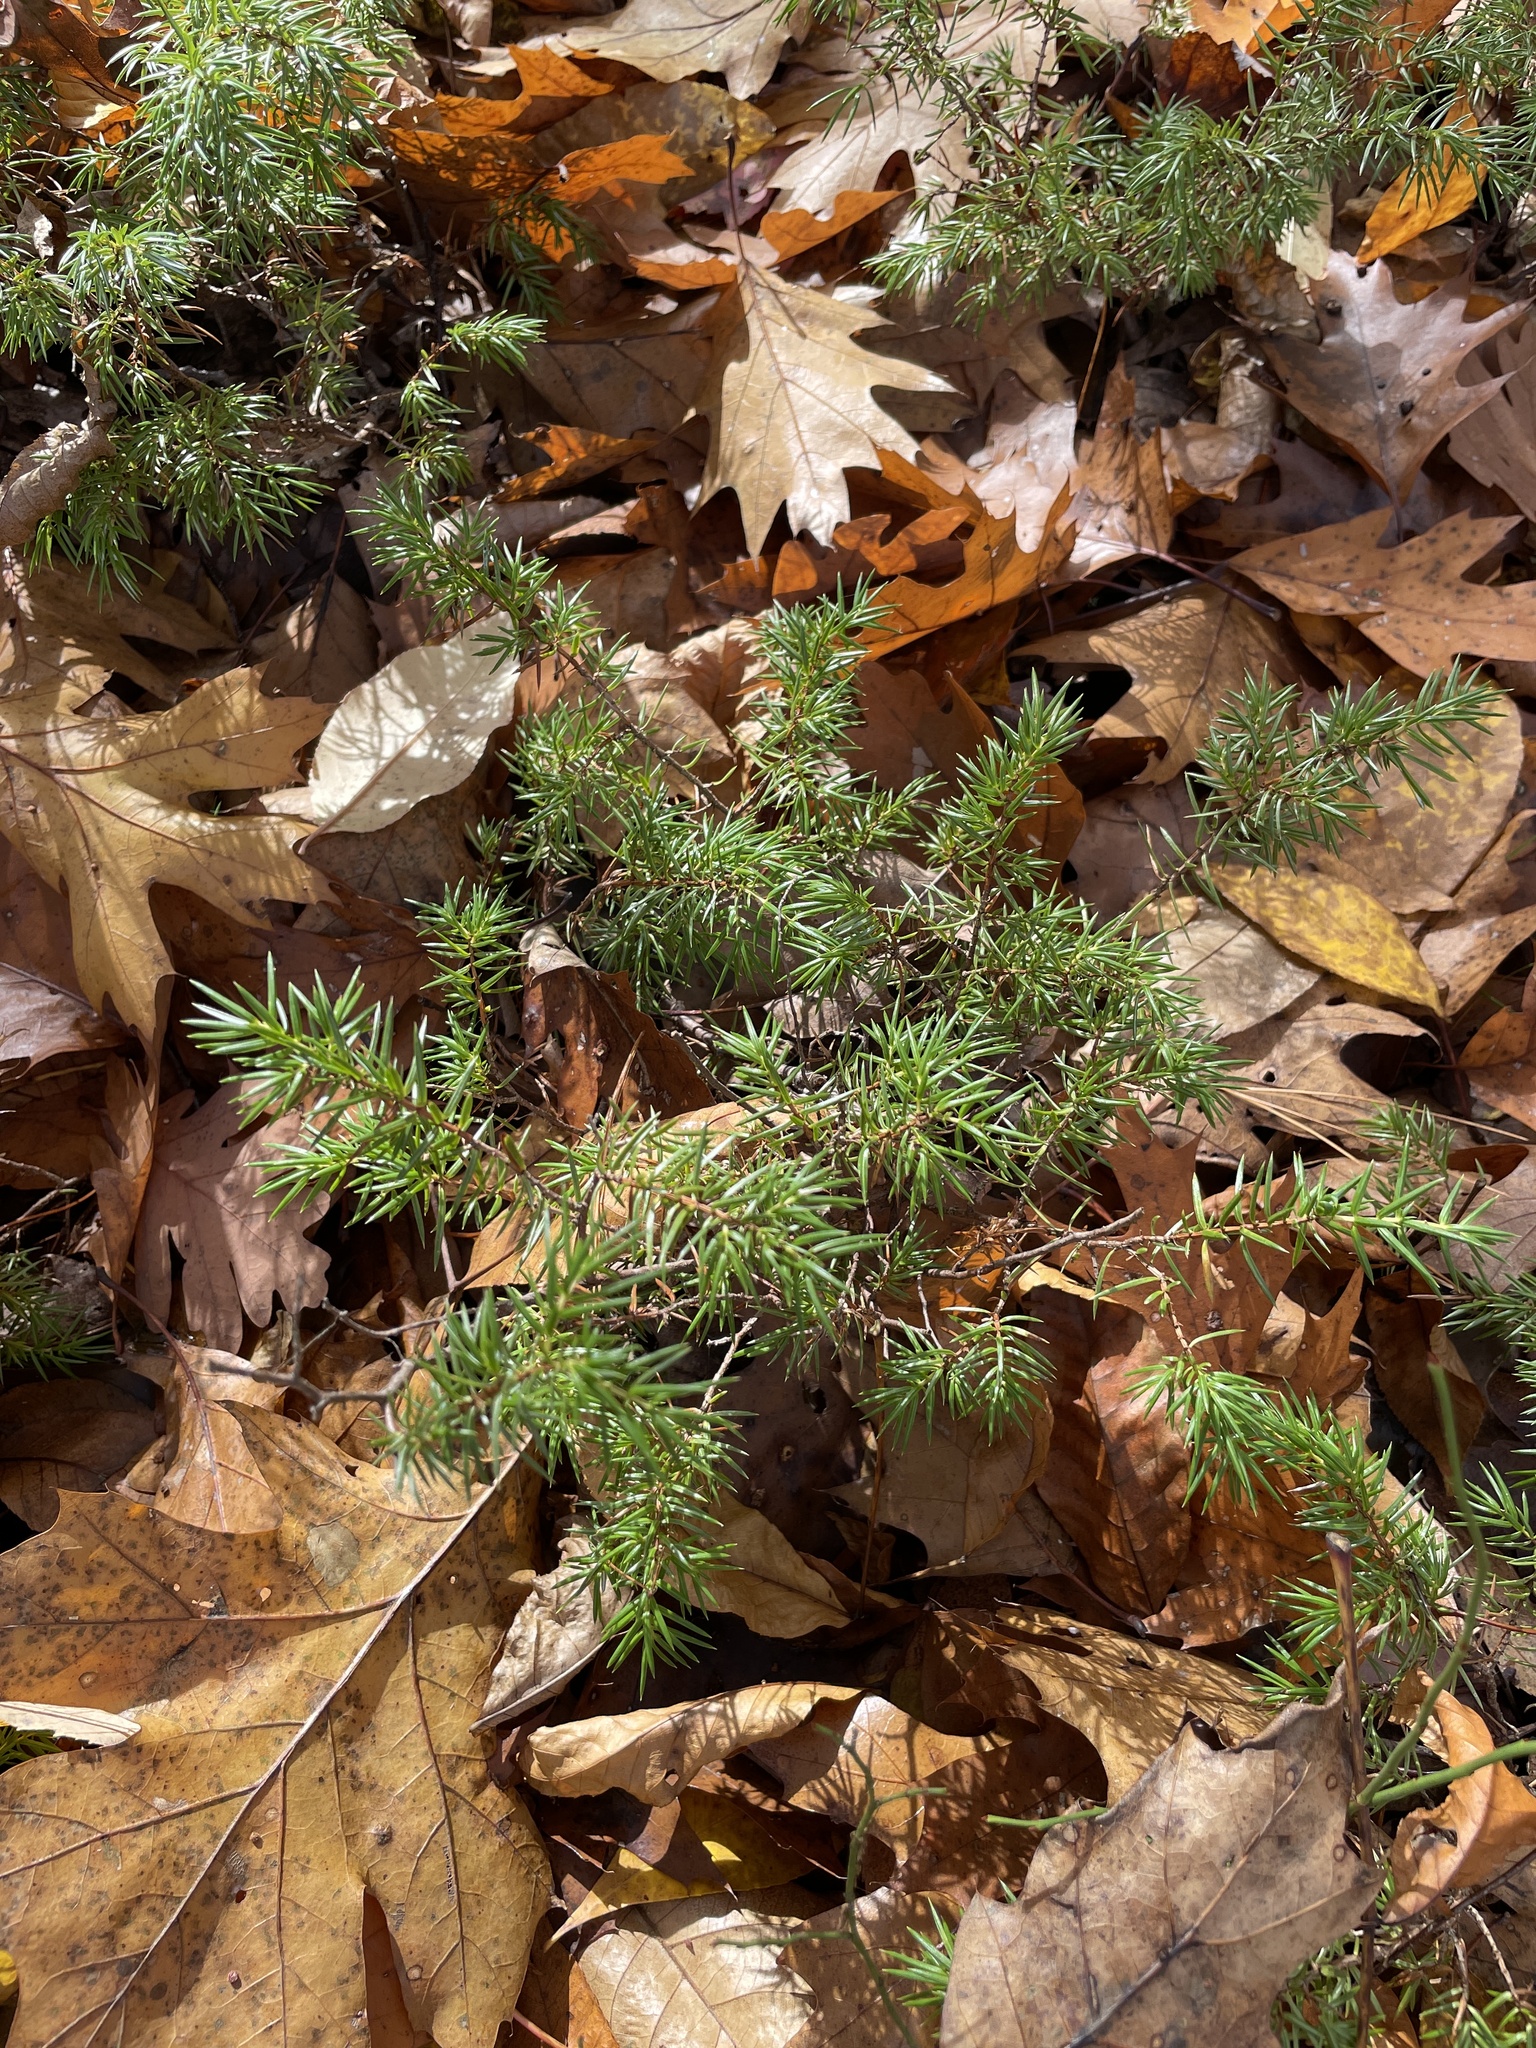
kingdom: Plantae
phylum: Tracheophyta
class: Pinopsida
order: Pinales
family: Cupressaceae
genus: Juniperus
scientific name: Juniperus communis
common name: Common juniper
